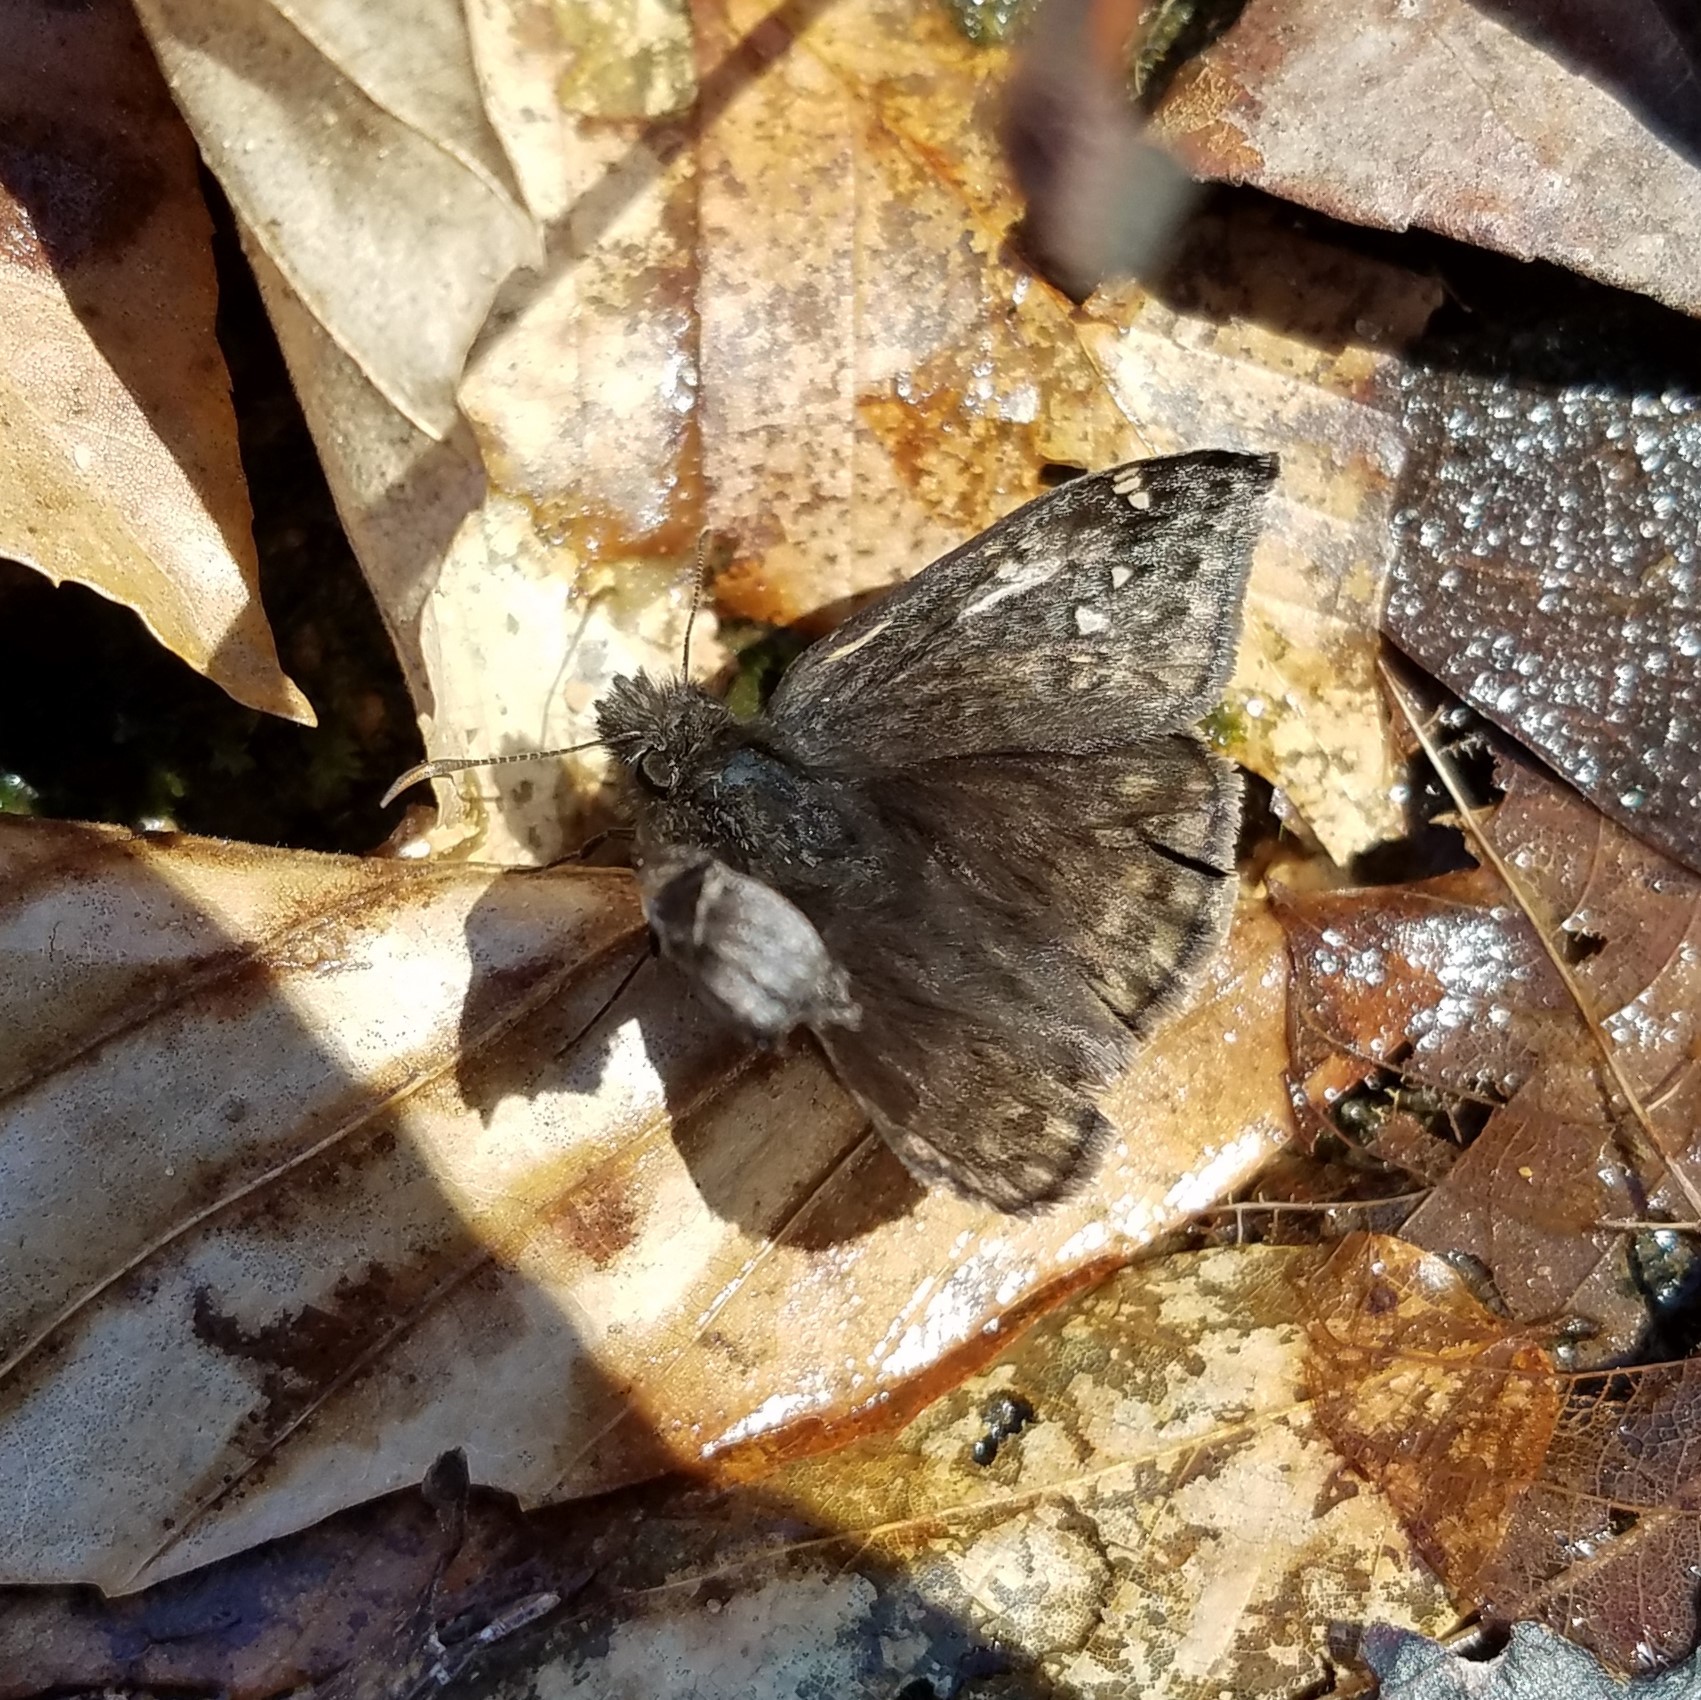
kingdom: Animalia
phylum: Arthropoda
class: Insecta
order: Lepidoptera
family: Hesperiidae
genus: Erynnis
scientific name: Erynnis juvenalis
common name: Juvenal's duskywing
